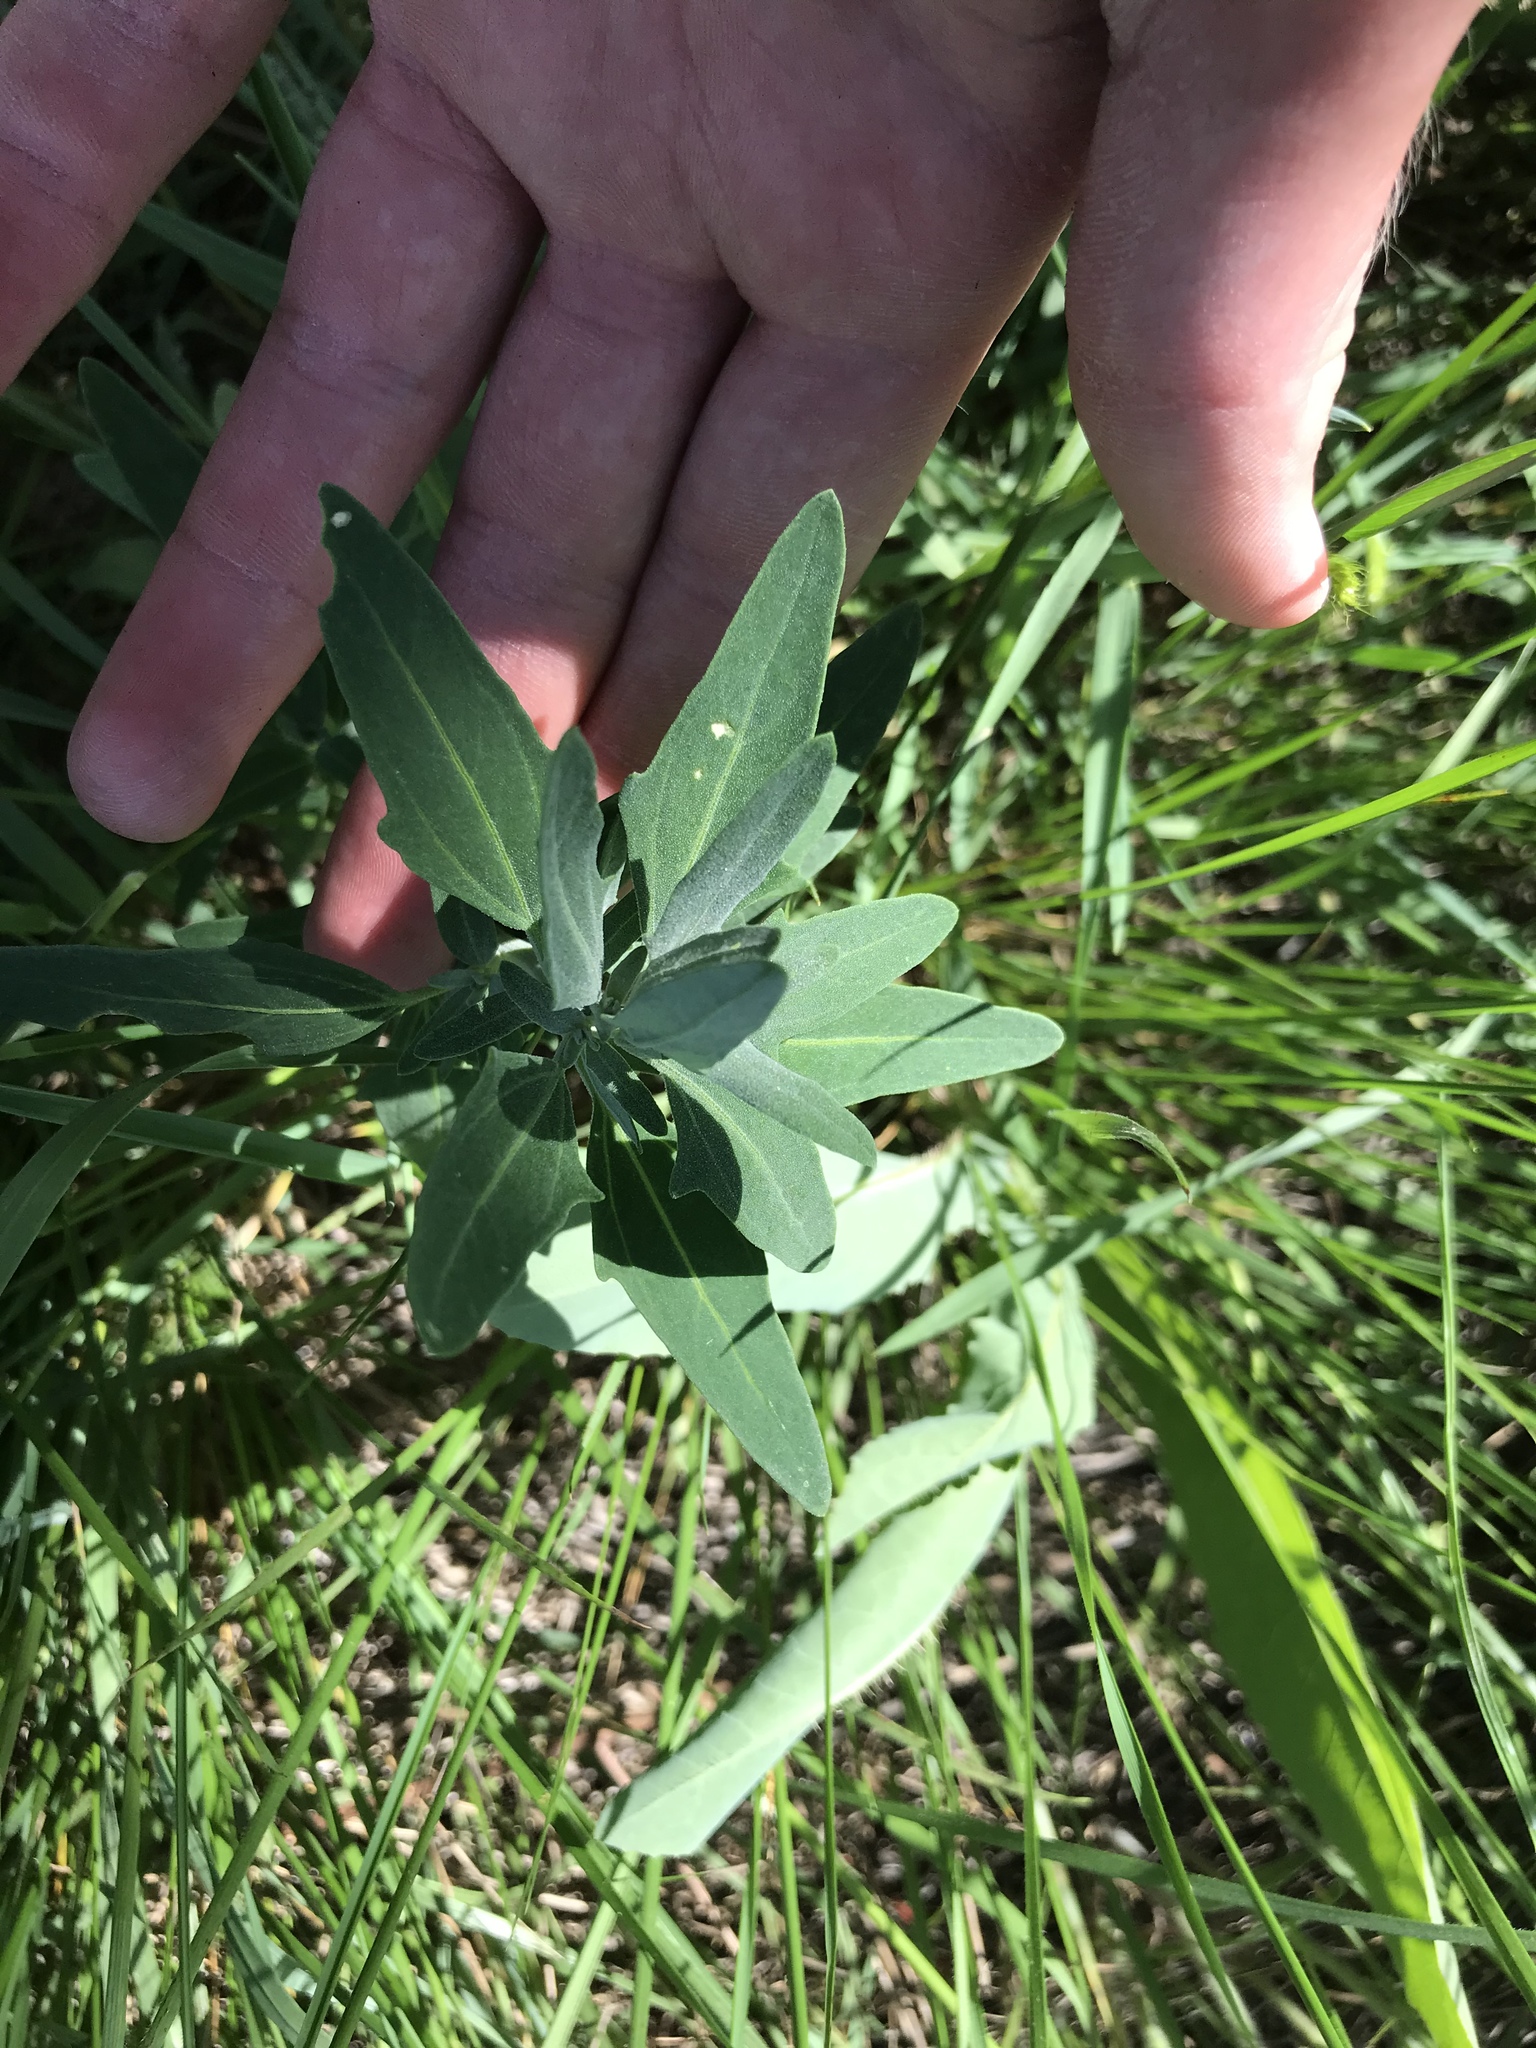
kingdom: Plantae
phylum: Tracheophyta
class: Magnoliopsida
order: Caryophyllales
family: Amaranthaceae
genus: Chenopodium
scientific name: Chenopodium album
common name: Fat-hen
